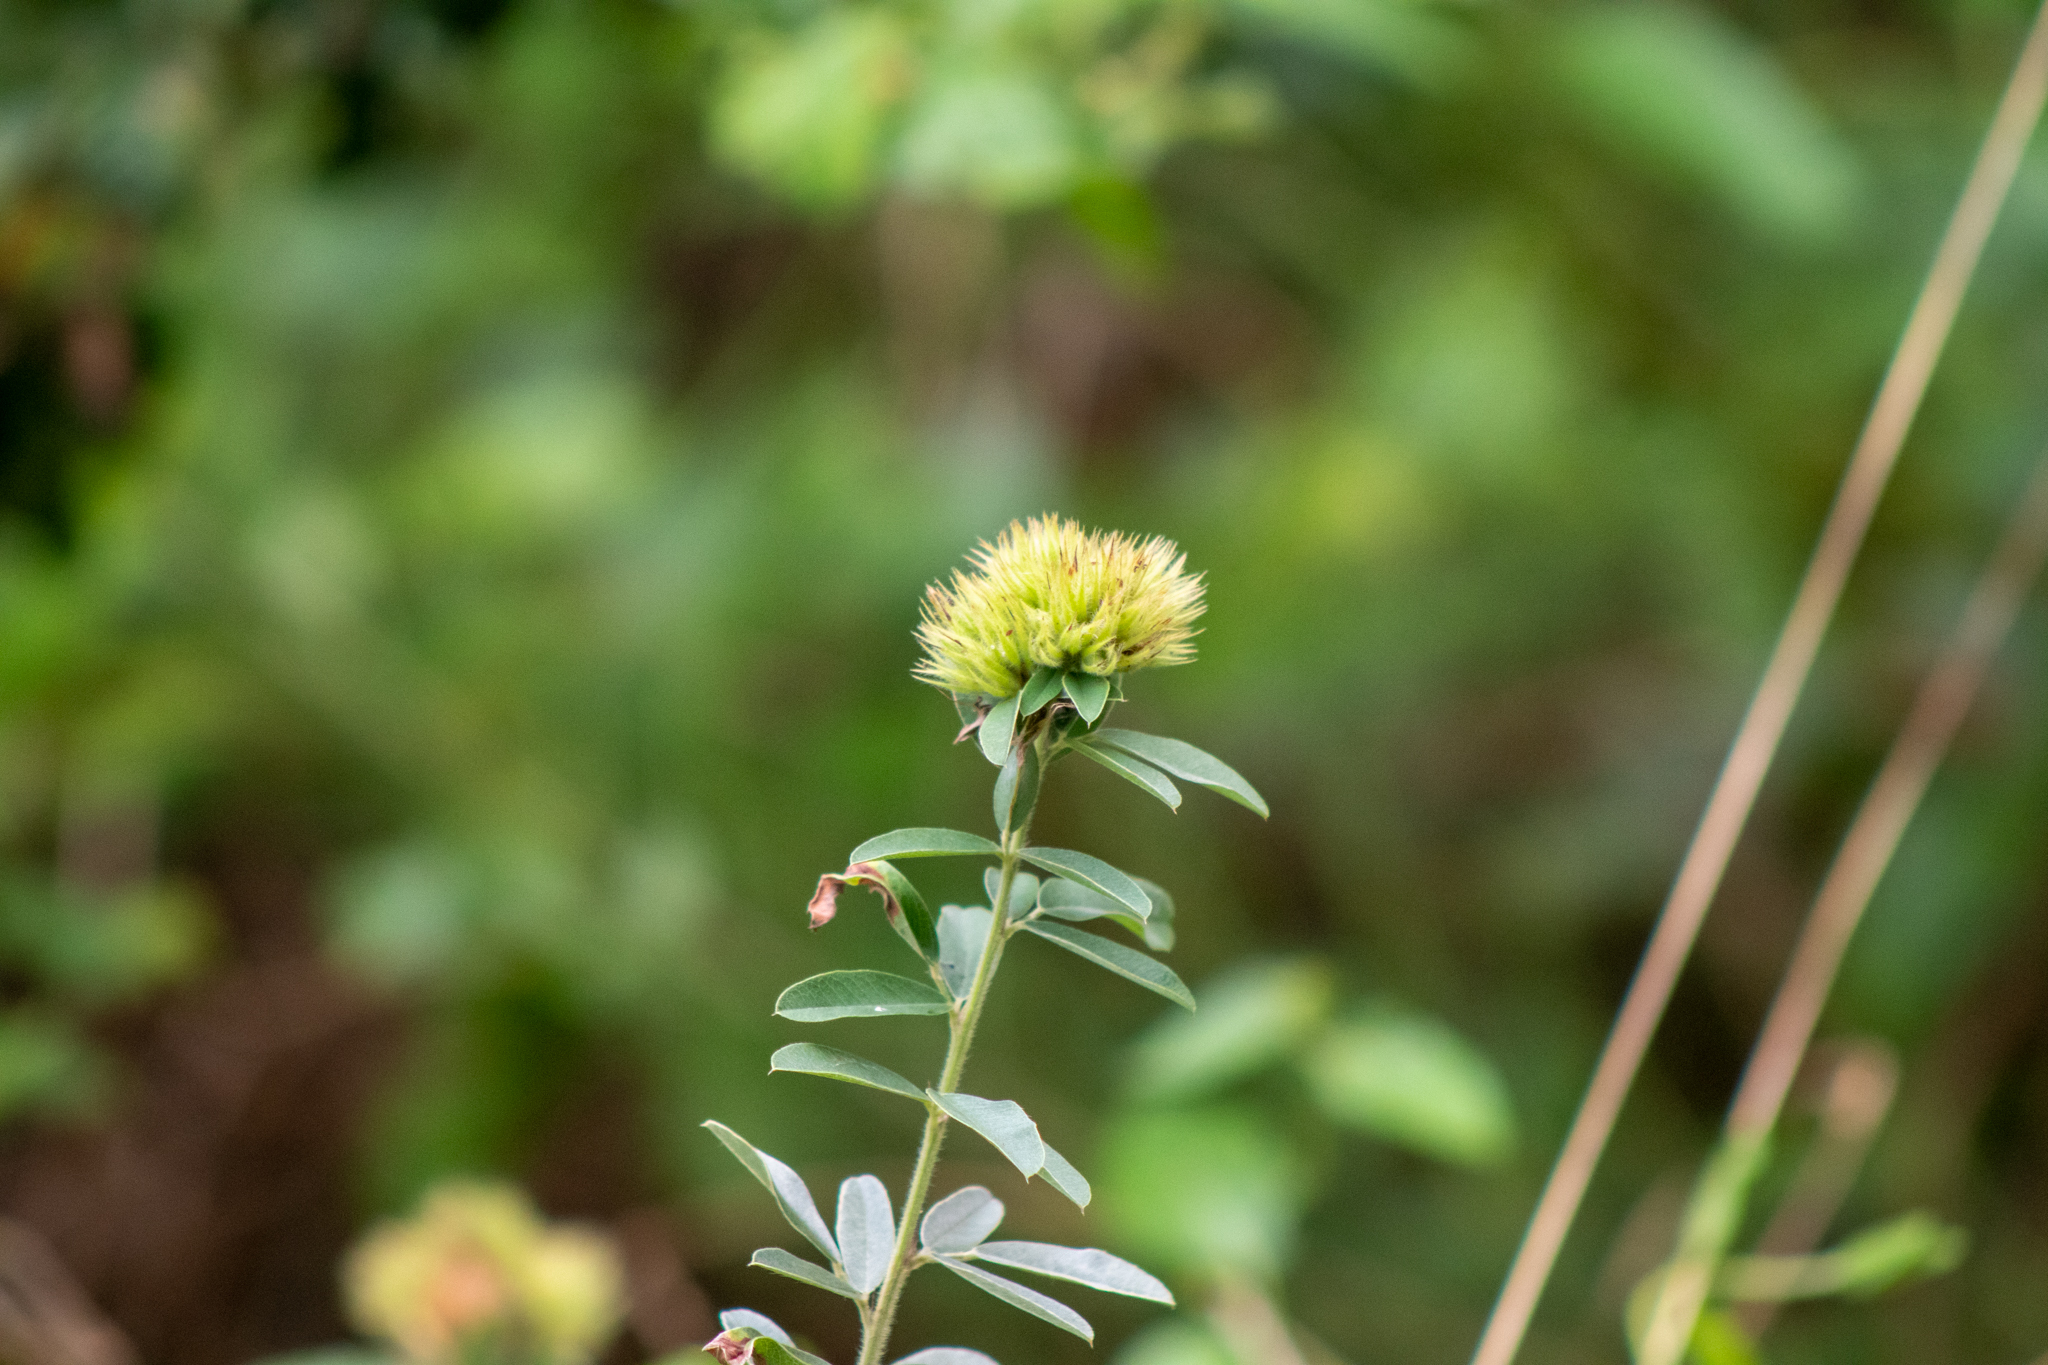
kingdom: Plantae
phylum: Tracheophyta
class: Magnoliopsida
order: Fabales
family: Fabaceae
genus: Lespedeza
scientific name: Lespedeza capitata
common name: Dusty clover
